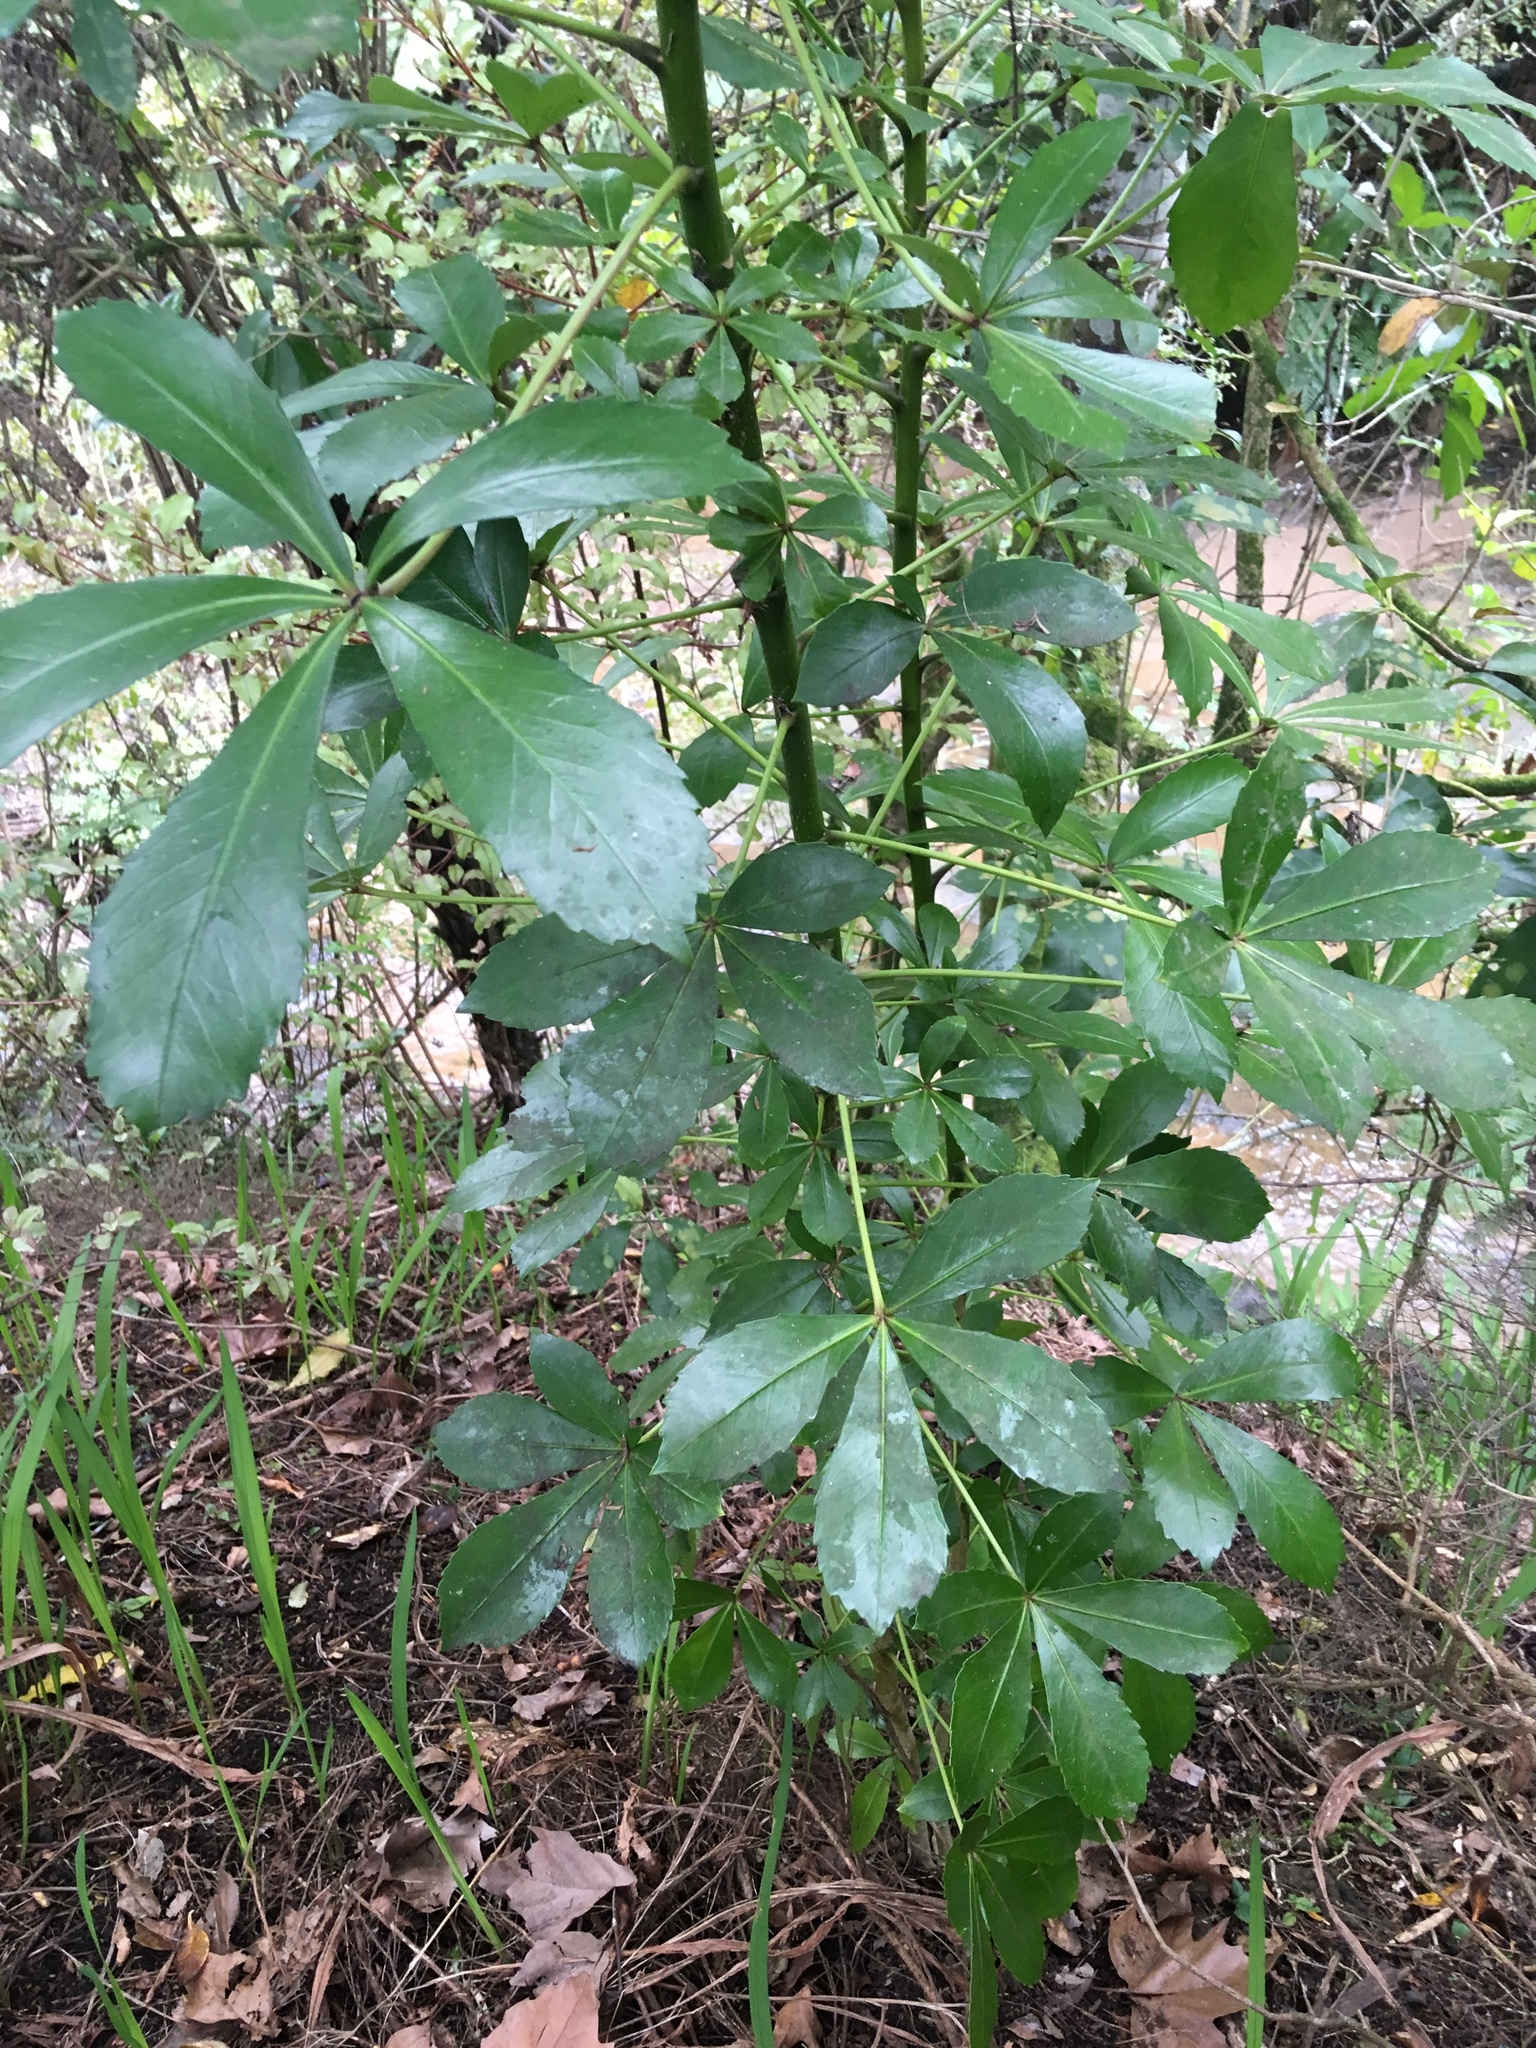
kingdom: Plantae
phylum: Tracheophyta
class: Magnoliopsida
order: Apiales
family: Araliaceae
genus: Pseudopanax
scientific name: Pseudopanax lessonii
